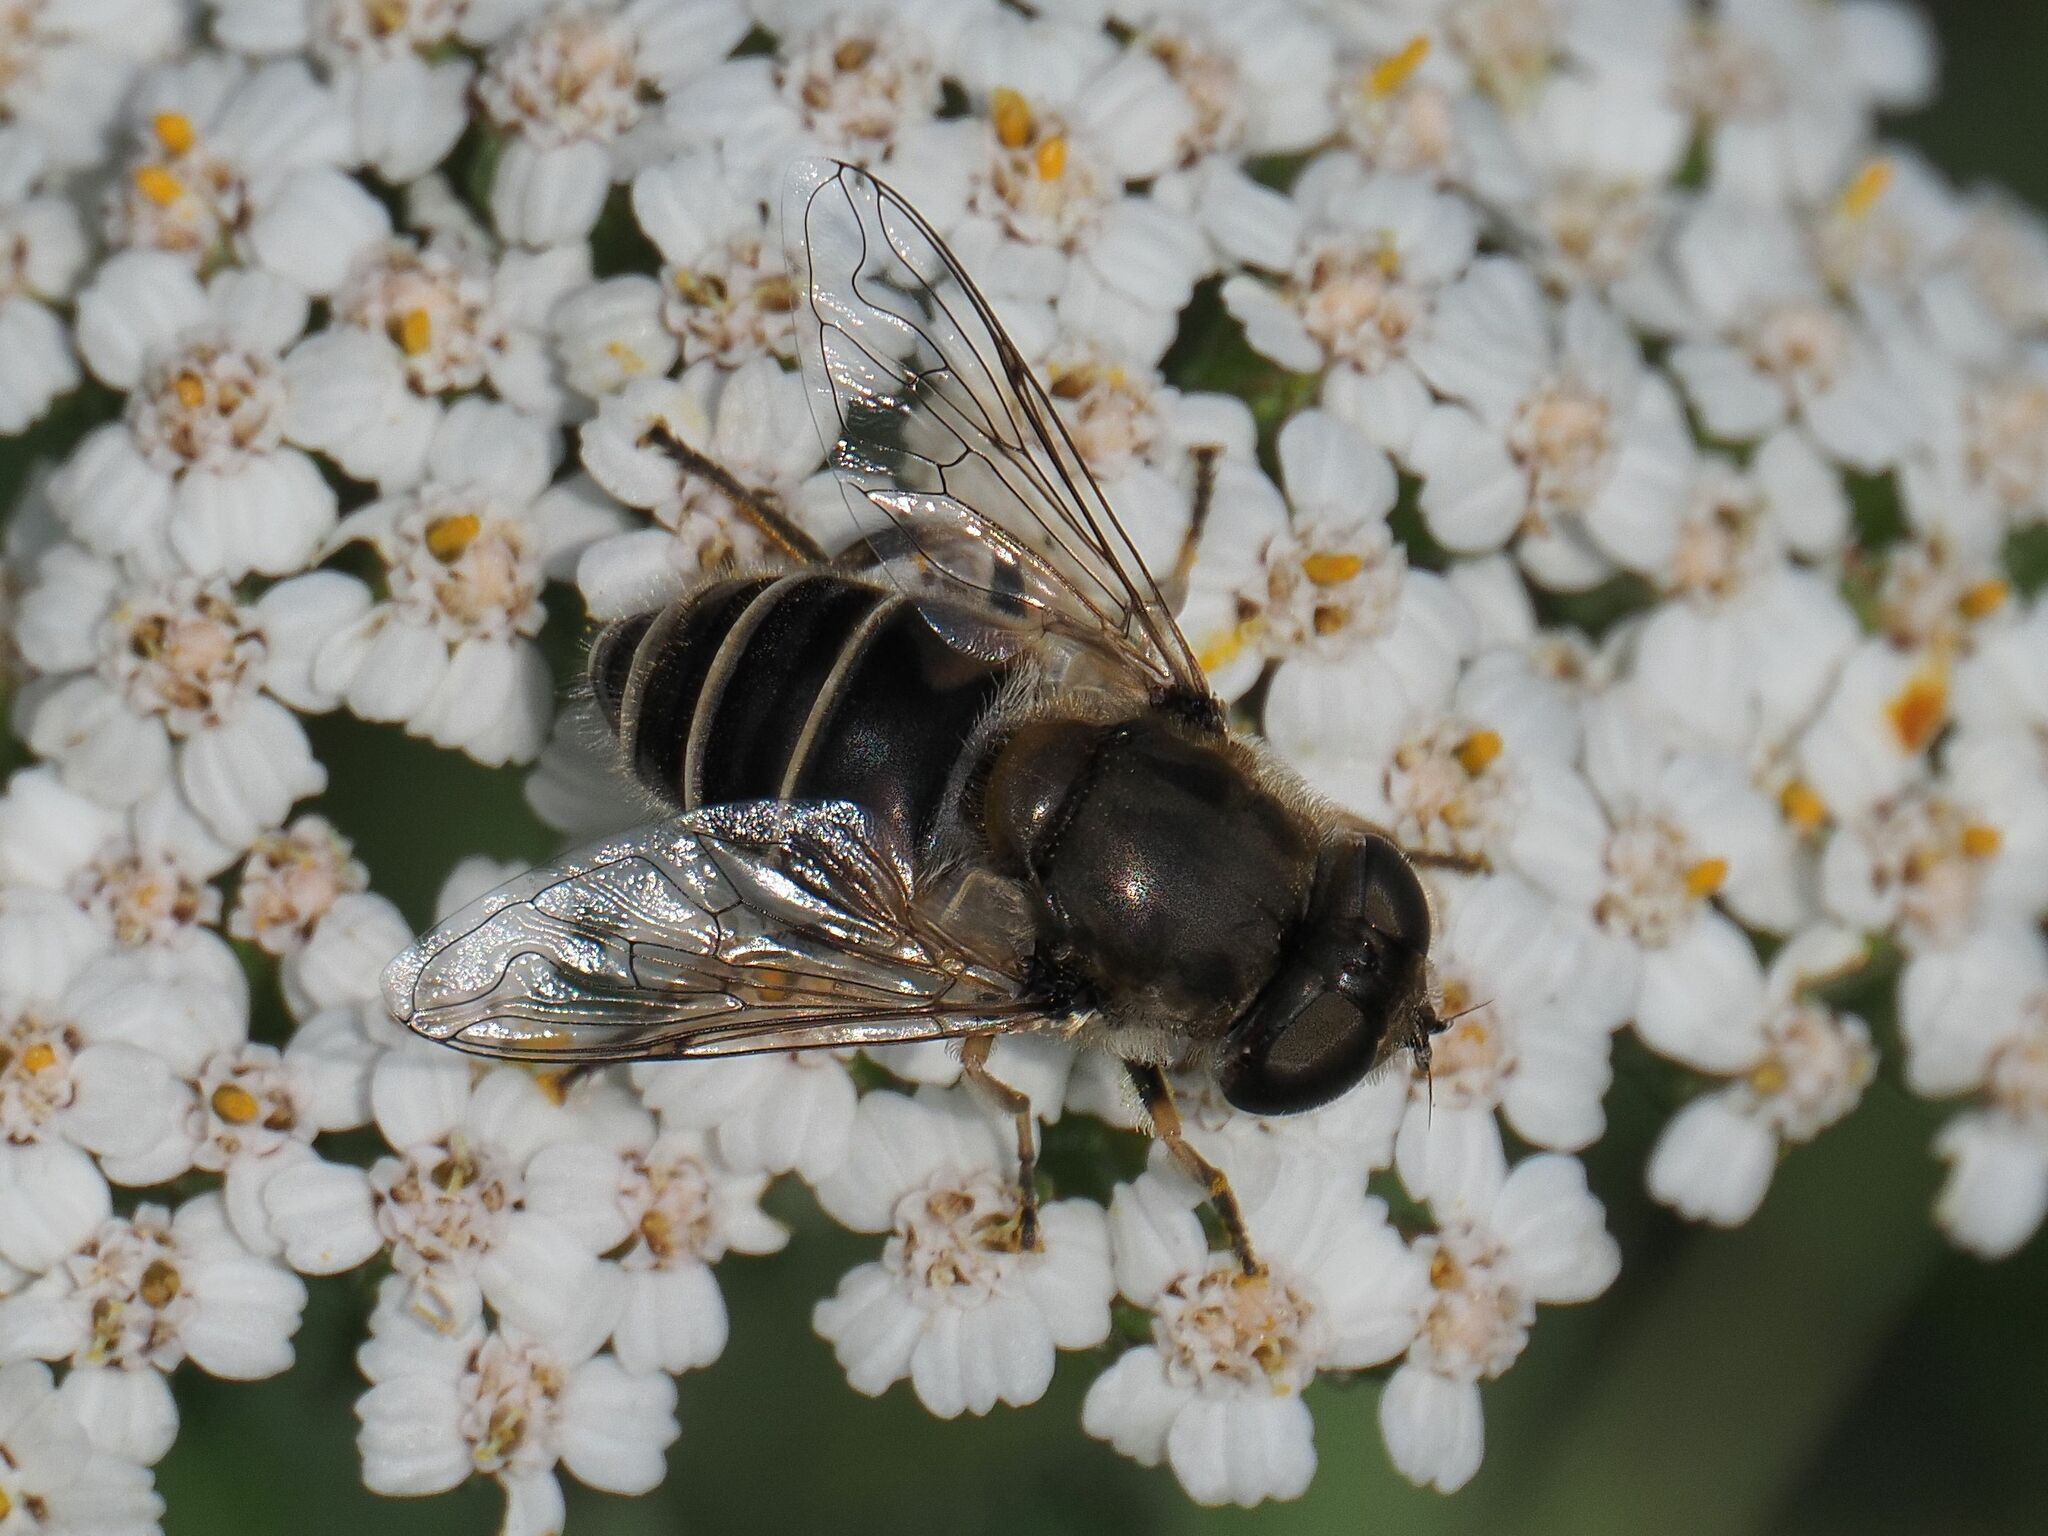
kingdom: Animalia
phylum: Arthropoda
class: Insecta
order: Diptera
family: Syrphidae
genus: Eristalis
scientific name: Eristalis arbustorum
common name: Hover fly
